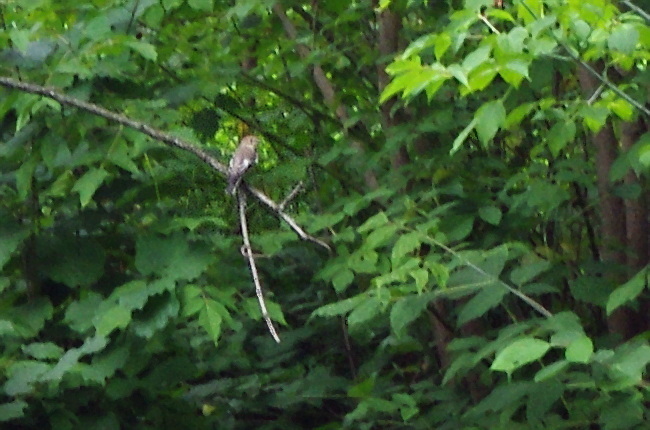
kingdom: Plantae
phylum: Tracheophyta
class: Magnoliopsida
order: Sapindales
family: Sapindaceae
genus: Acer
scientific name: Acer negundo
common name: Ashleaf maple
